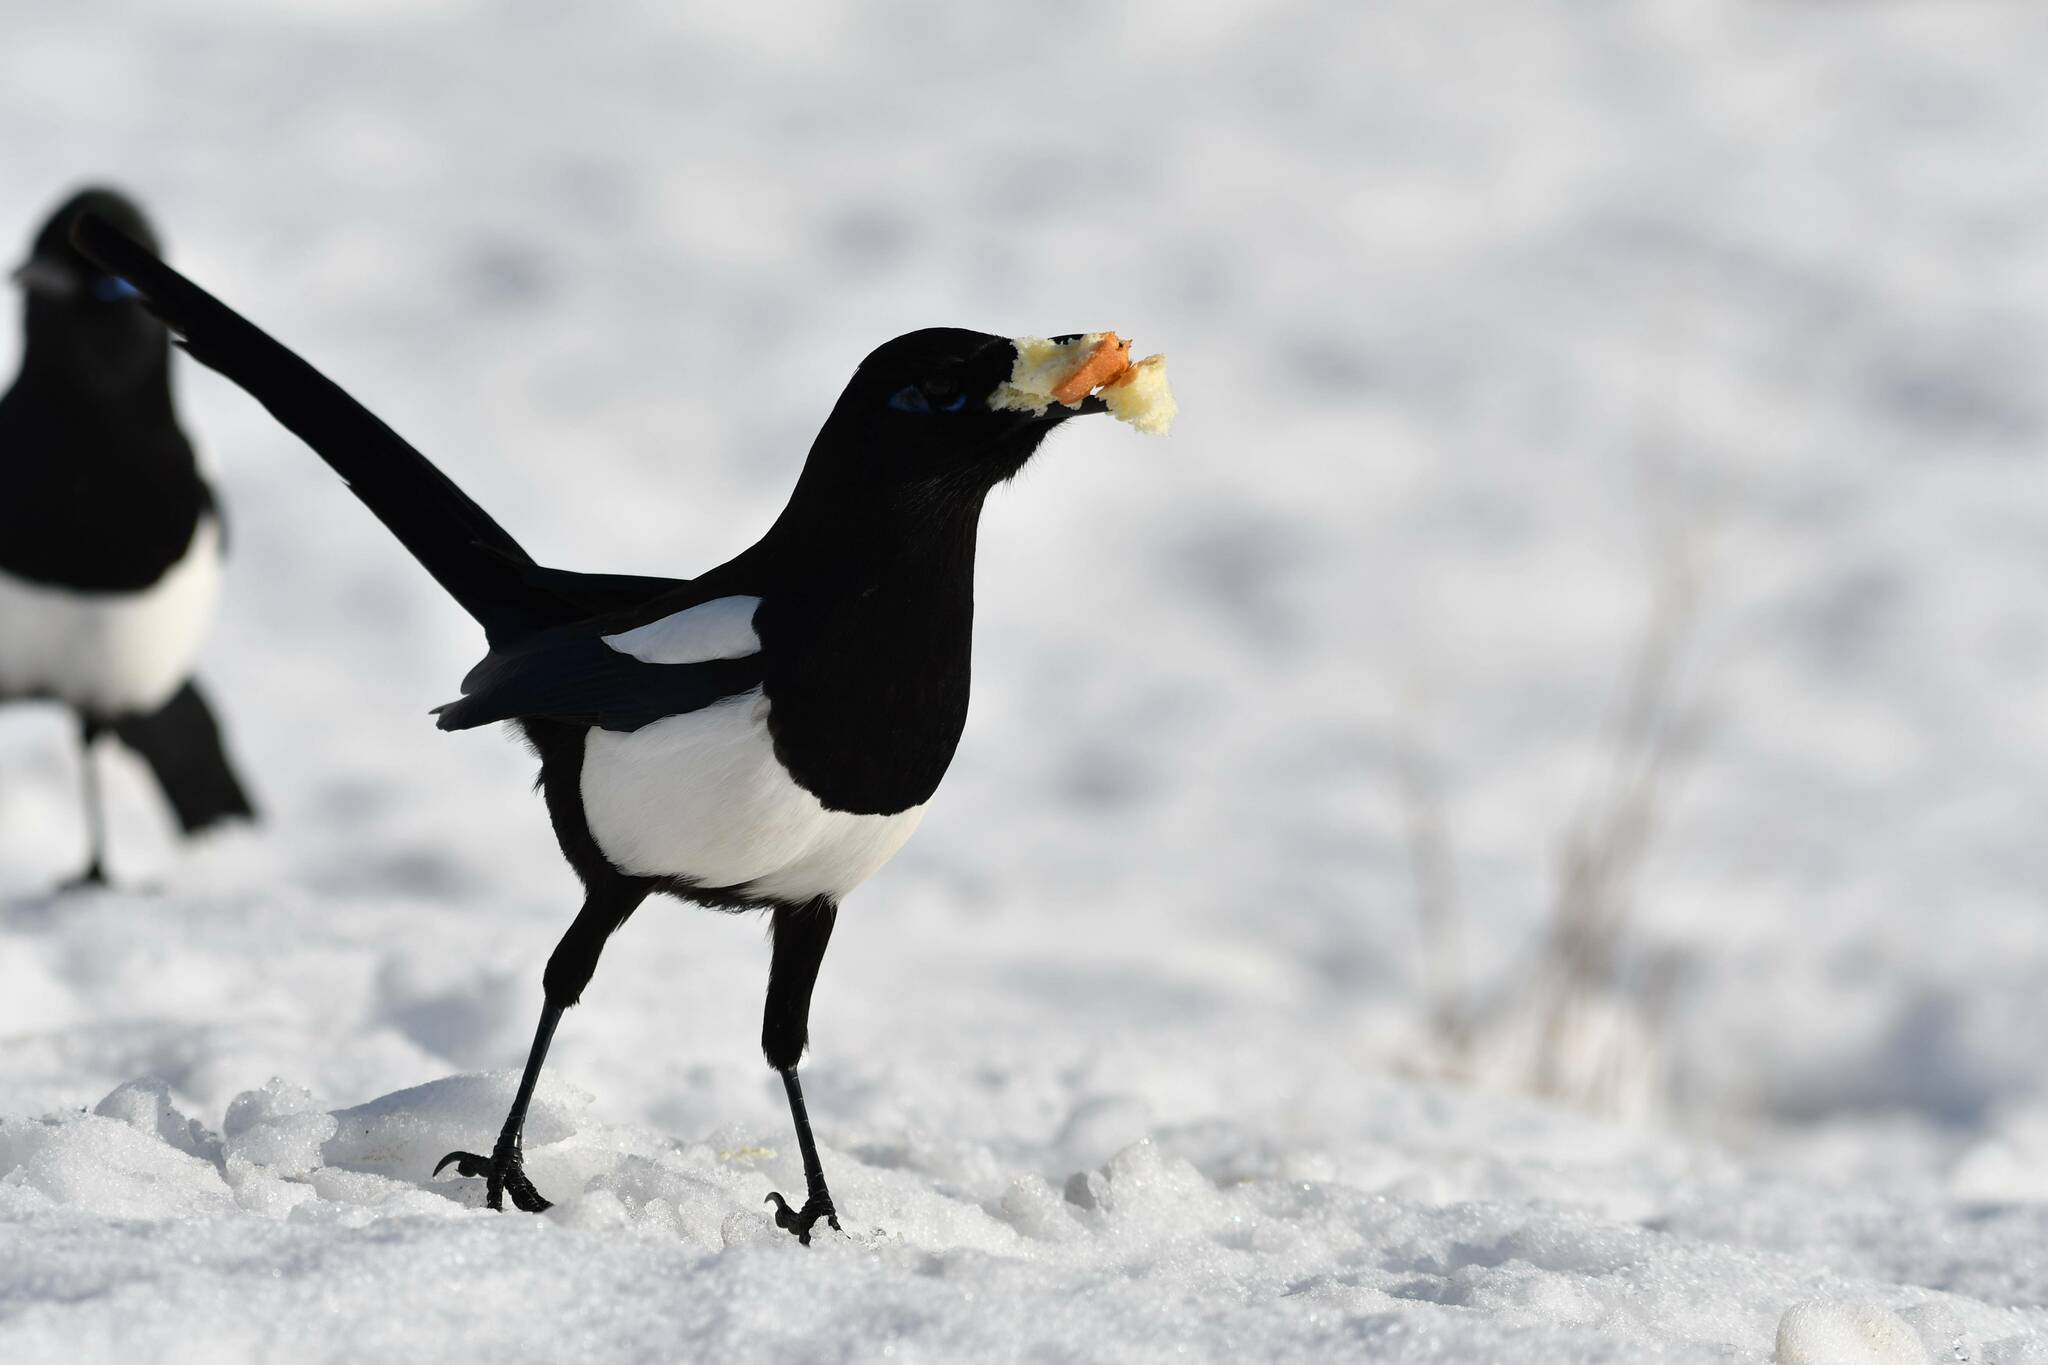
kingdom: Animalia
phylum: Chordata
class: Aves
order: Passeriformes
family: Corvidae
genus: Pica
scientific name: Pica mauritanica
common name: Maghreb magpie
